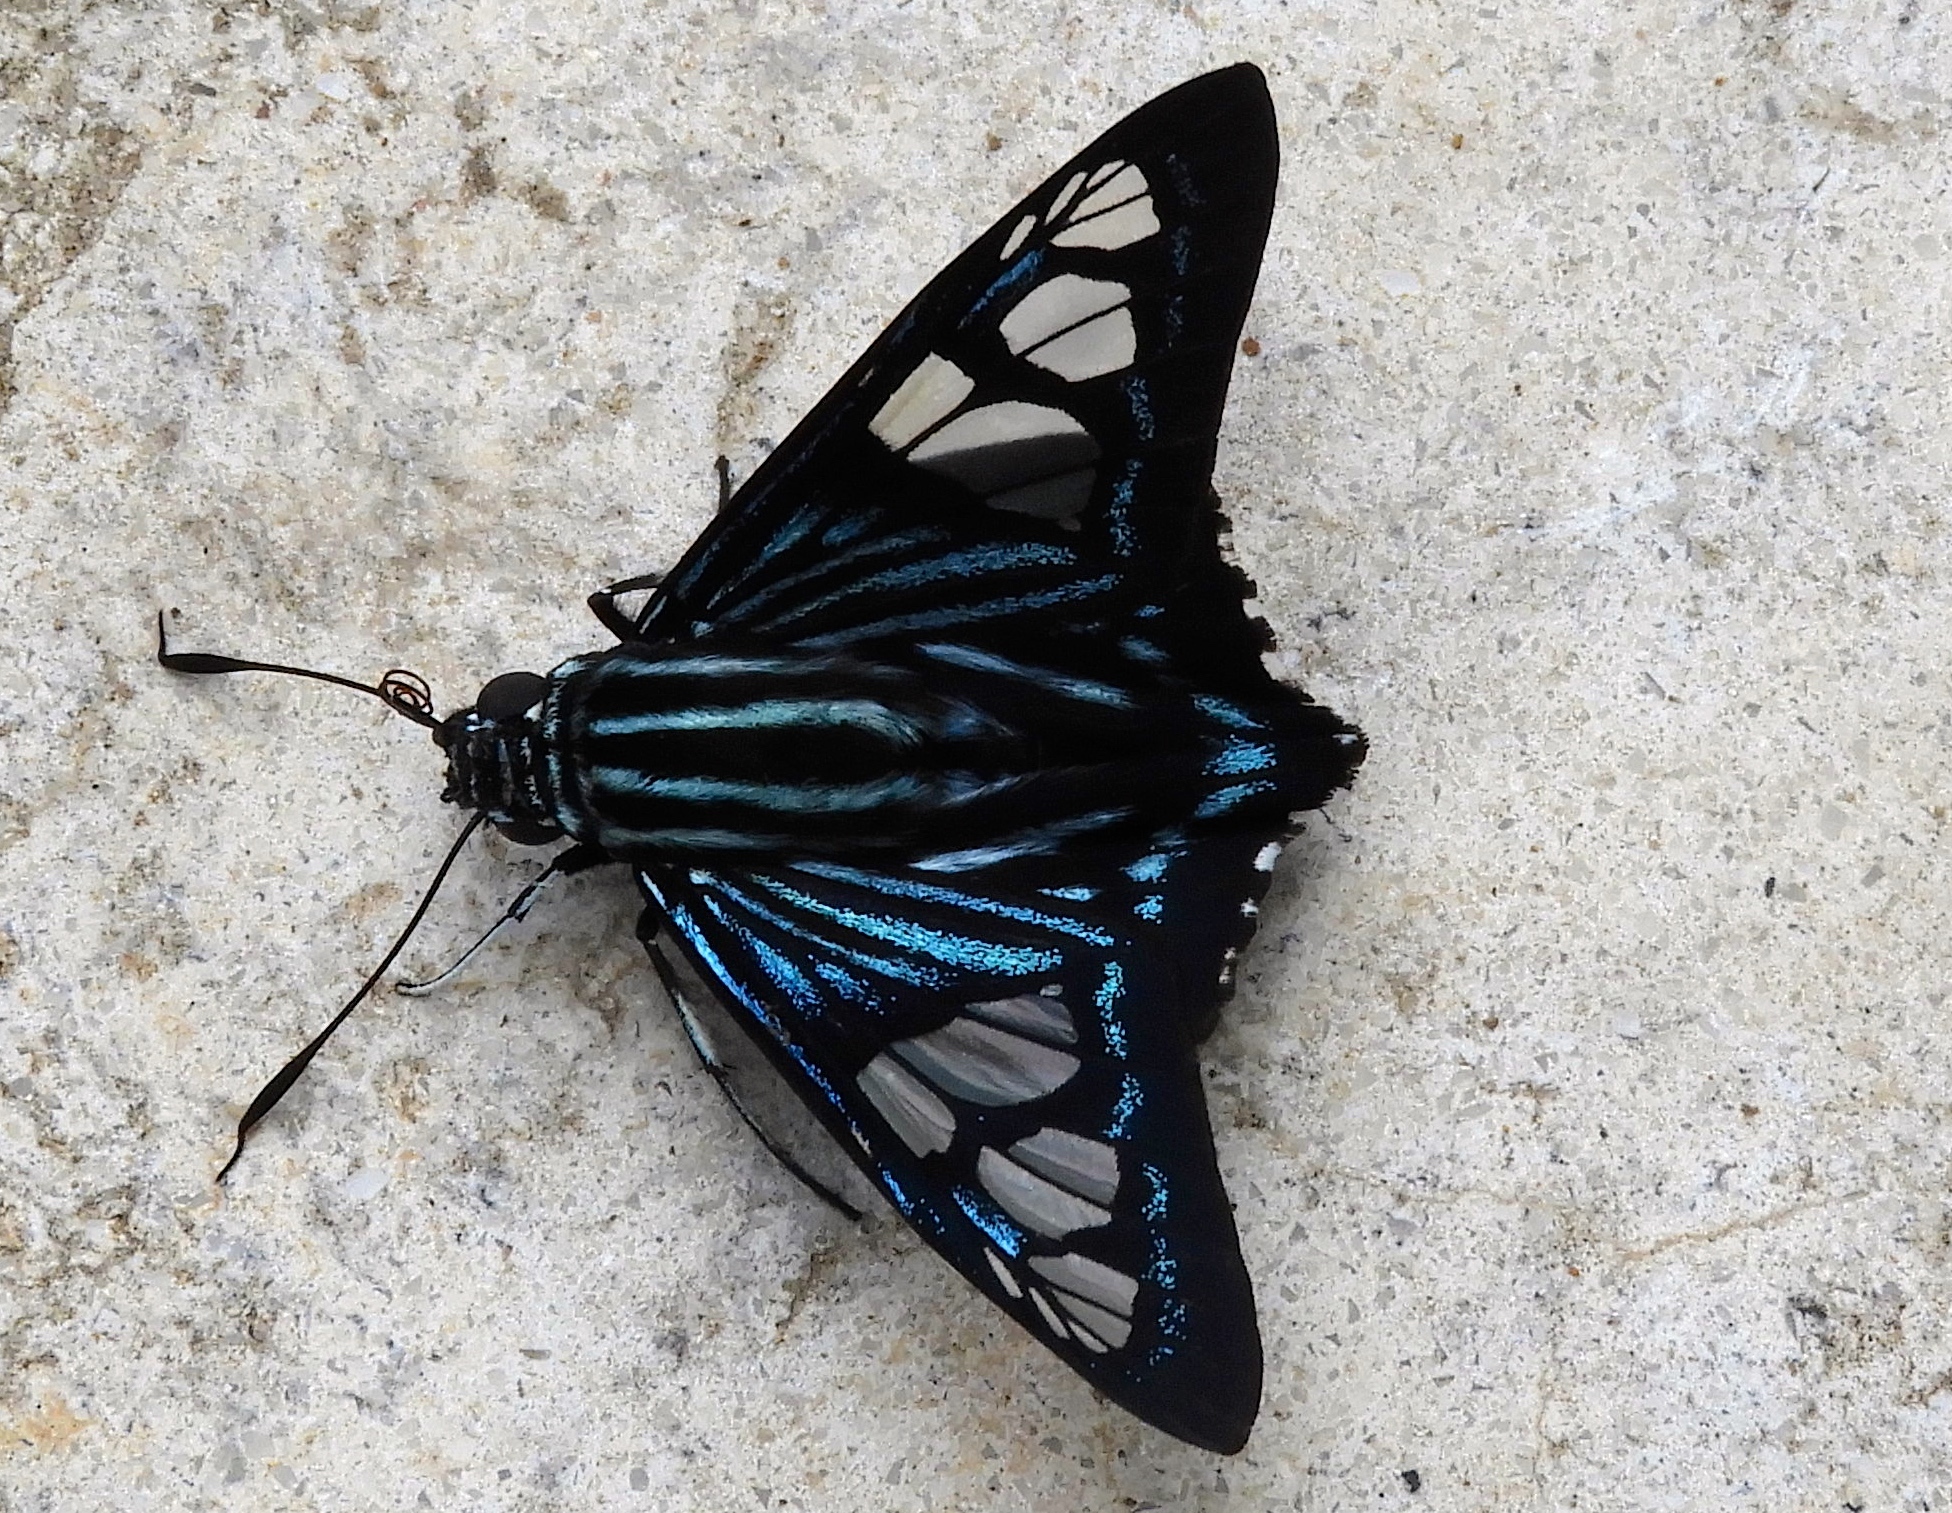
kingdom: Animalia
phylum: Arthropoda
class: Insecta
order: Lepidoptera
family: Hesperiidae
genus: Phocides
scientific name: Phocides pigmalion
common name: Mangrove skipper
